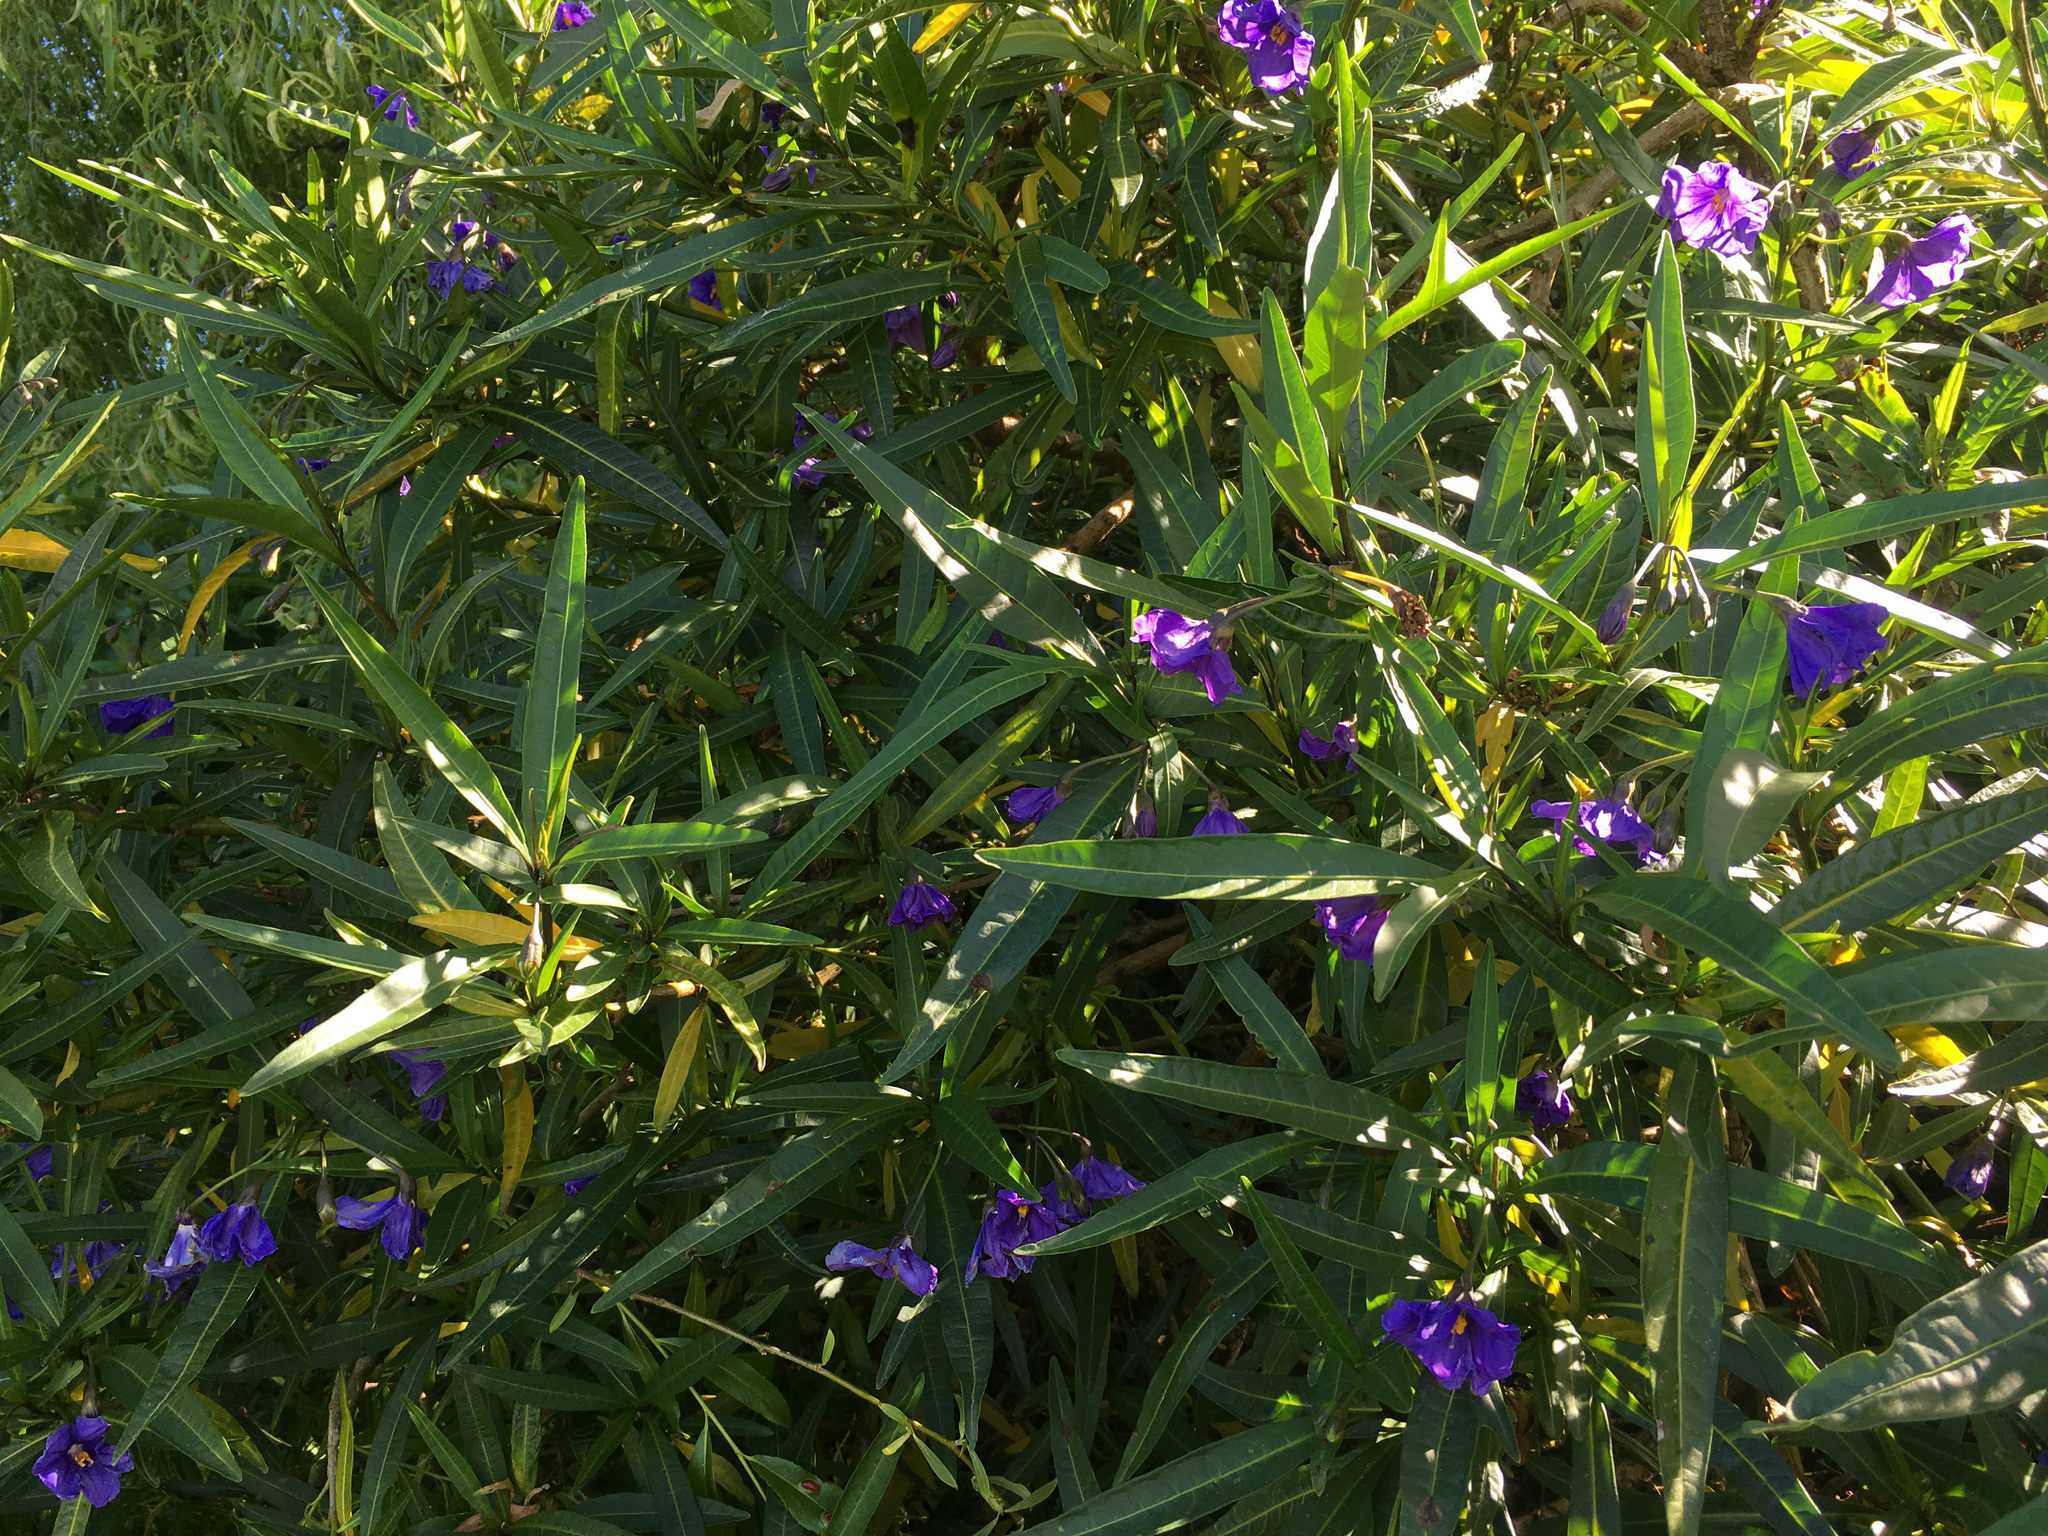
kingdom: Plantae
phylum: Tracheophyta
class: Magnoliopsida
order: Solanales
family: Solanaceae
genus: Solanum
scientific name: Solanum laciniatum
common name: Kangaroo-apple
